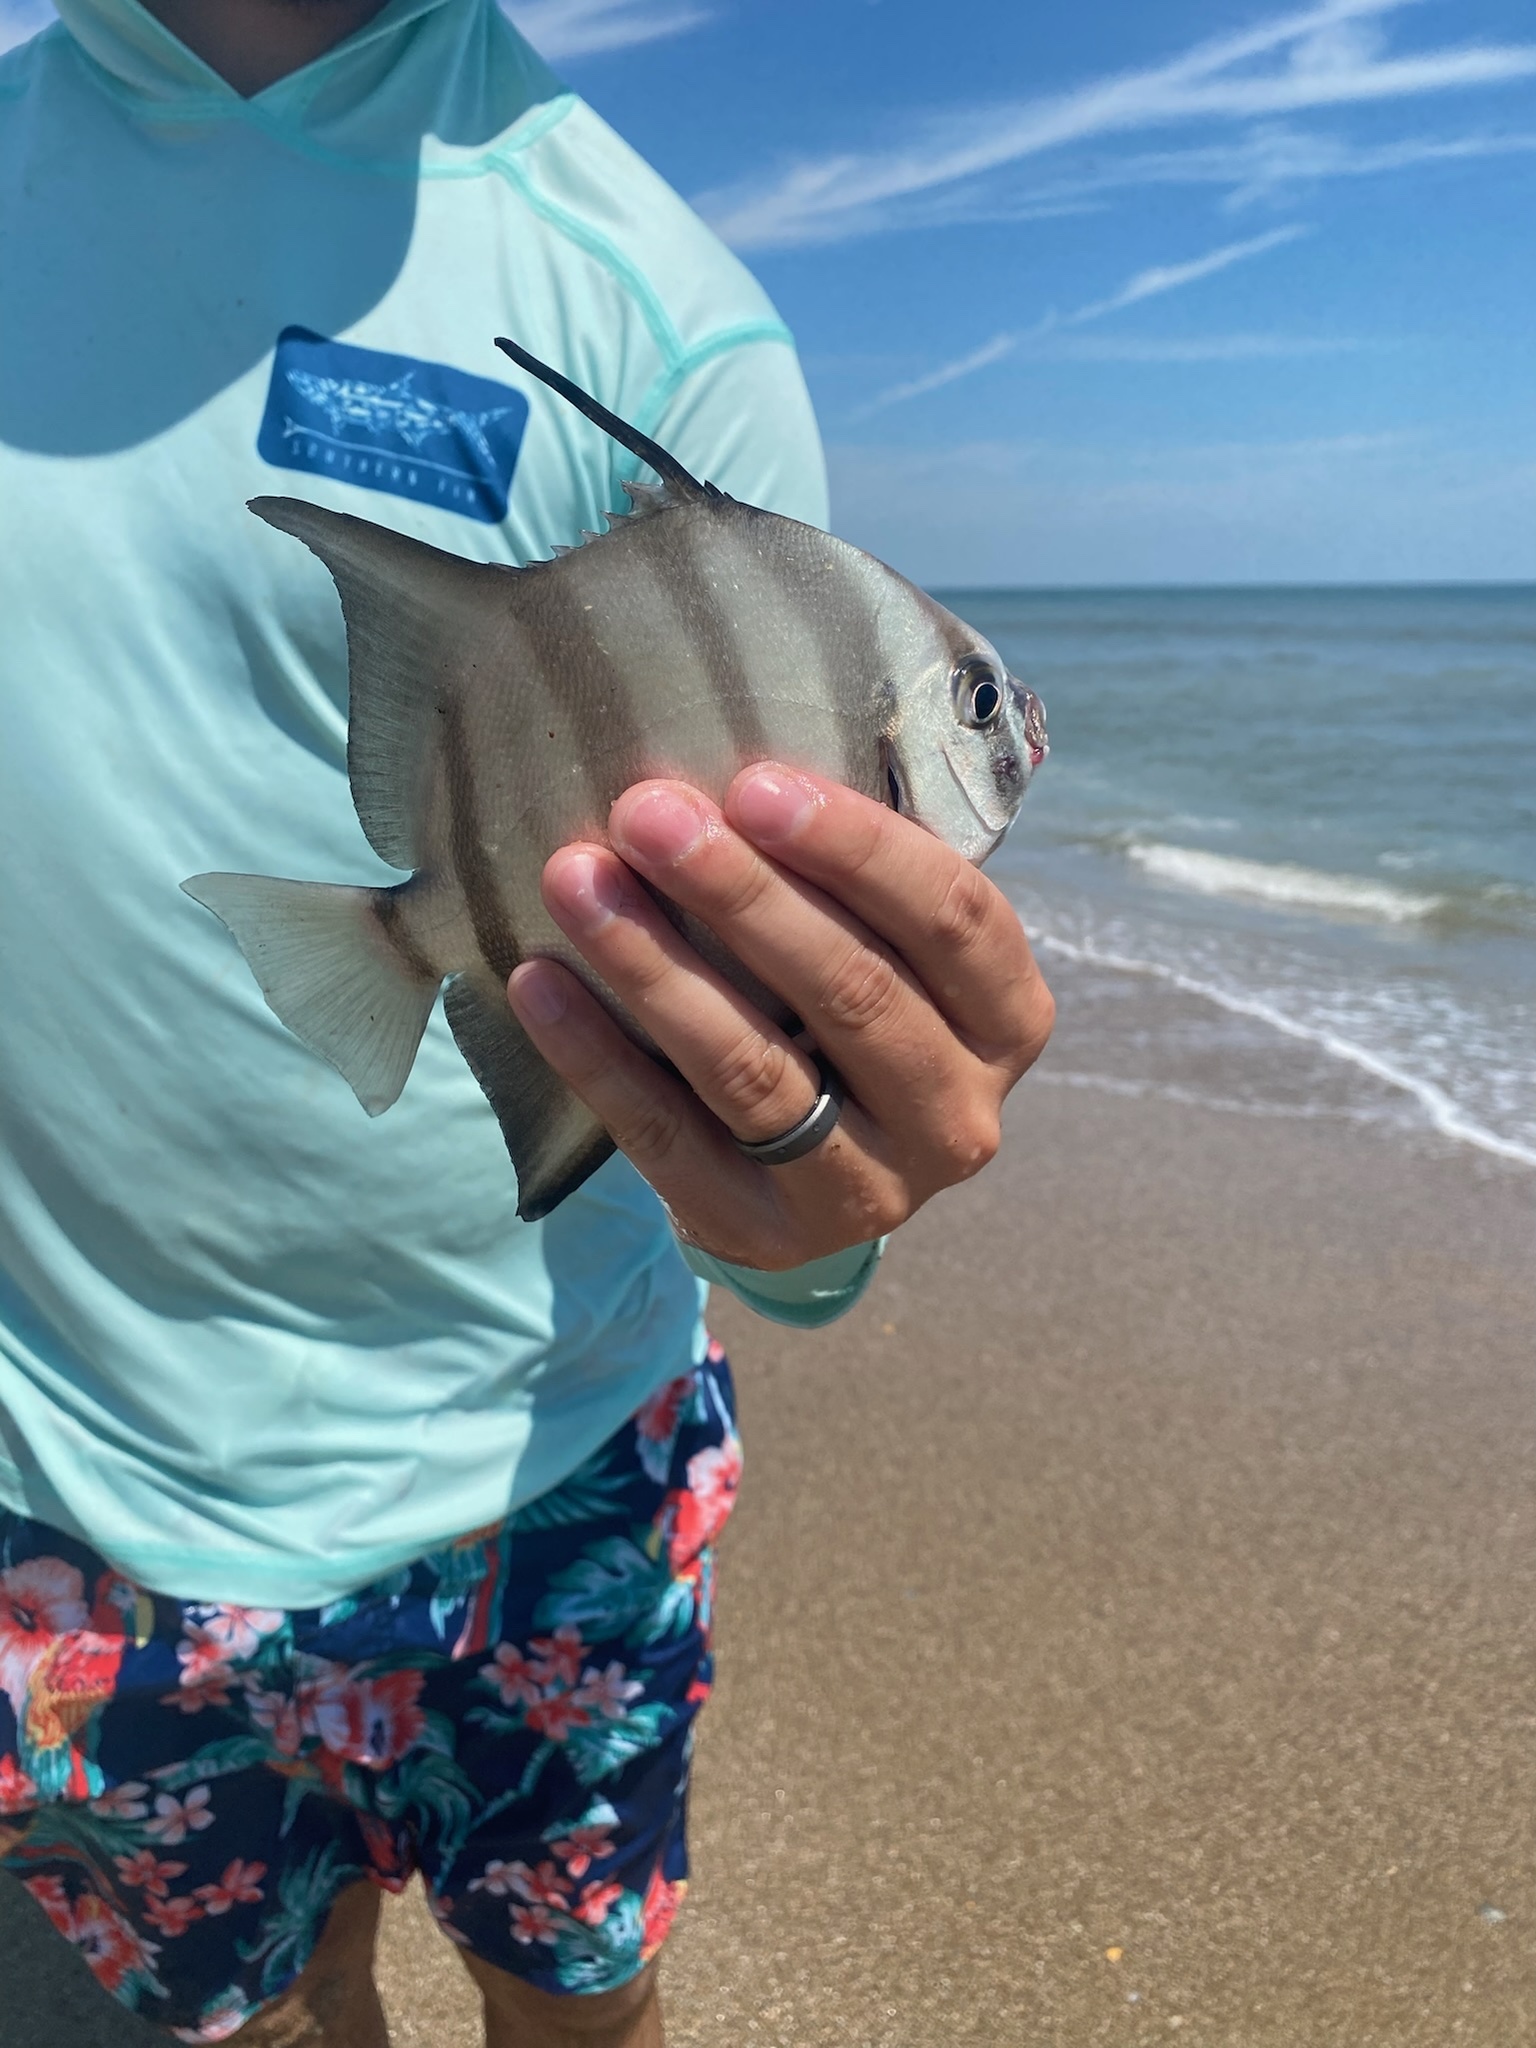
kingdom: Animalia
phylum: Chordata
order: Perciformes
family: Ephippidae
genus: Chaetodipterus
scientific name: Chaetodipterus faber
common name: Ocean cobbler
